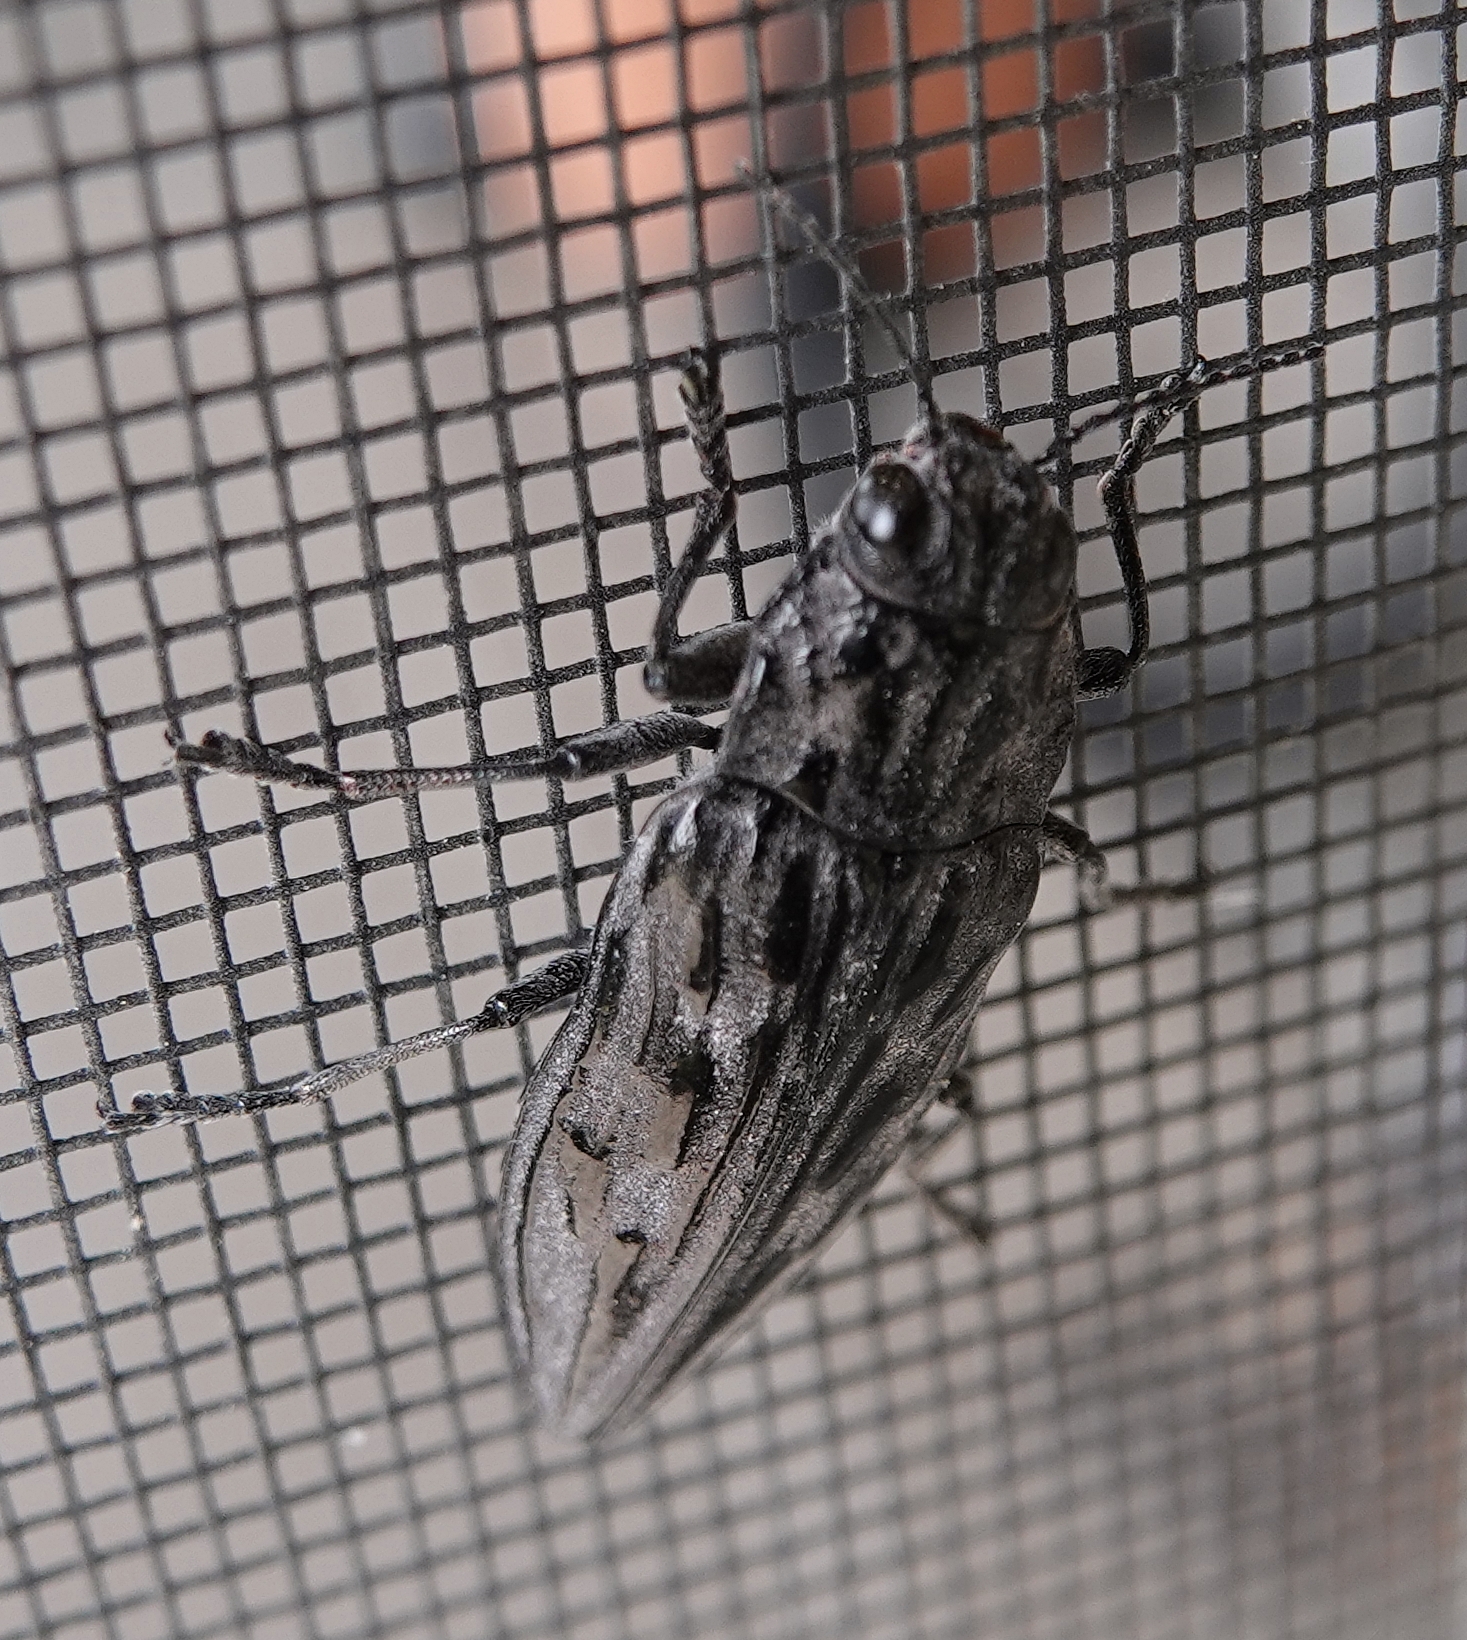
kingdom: Animalia
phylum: Arthropoda
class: Insecta
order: Coleoptera
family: Buprestidae
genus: Chalcophora
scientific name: Chalcophora angulicollis
